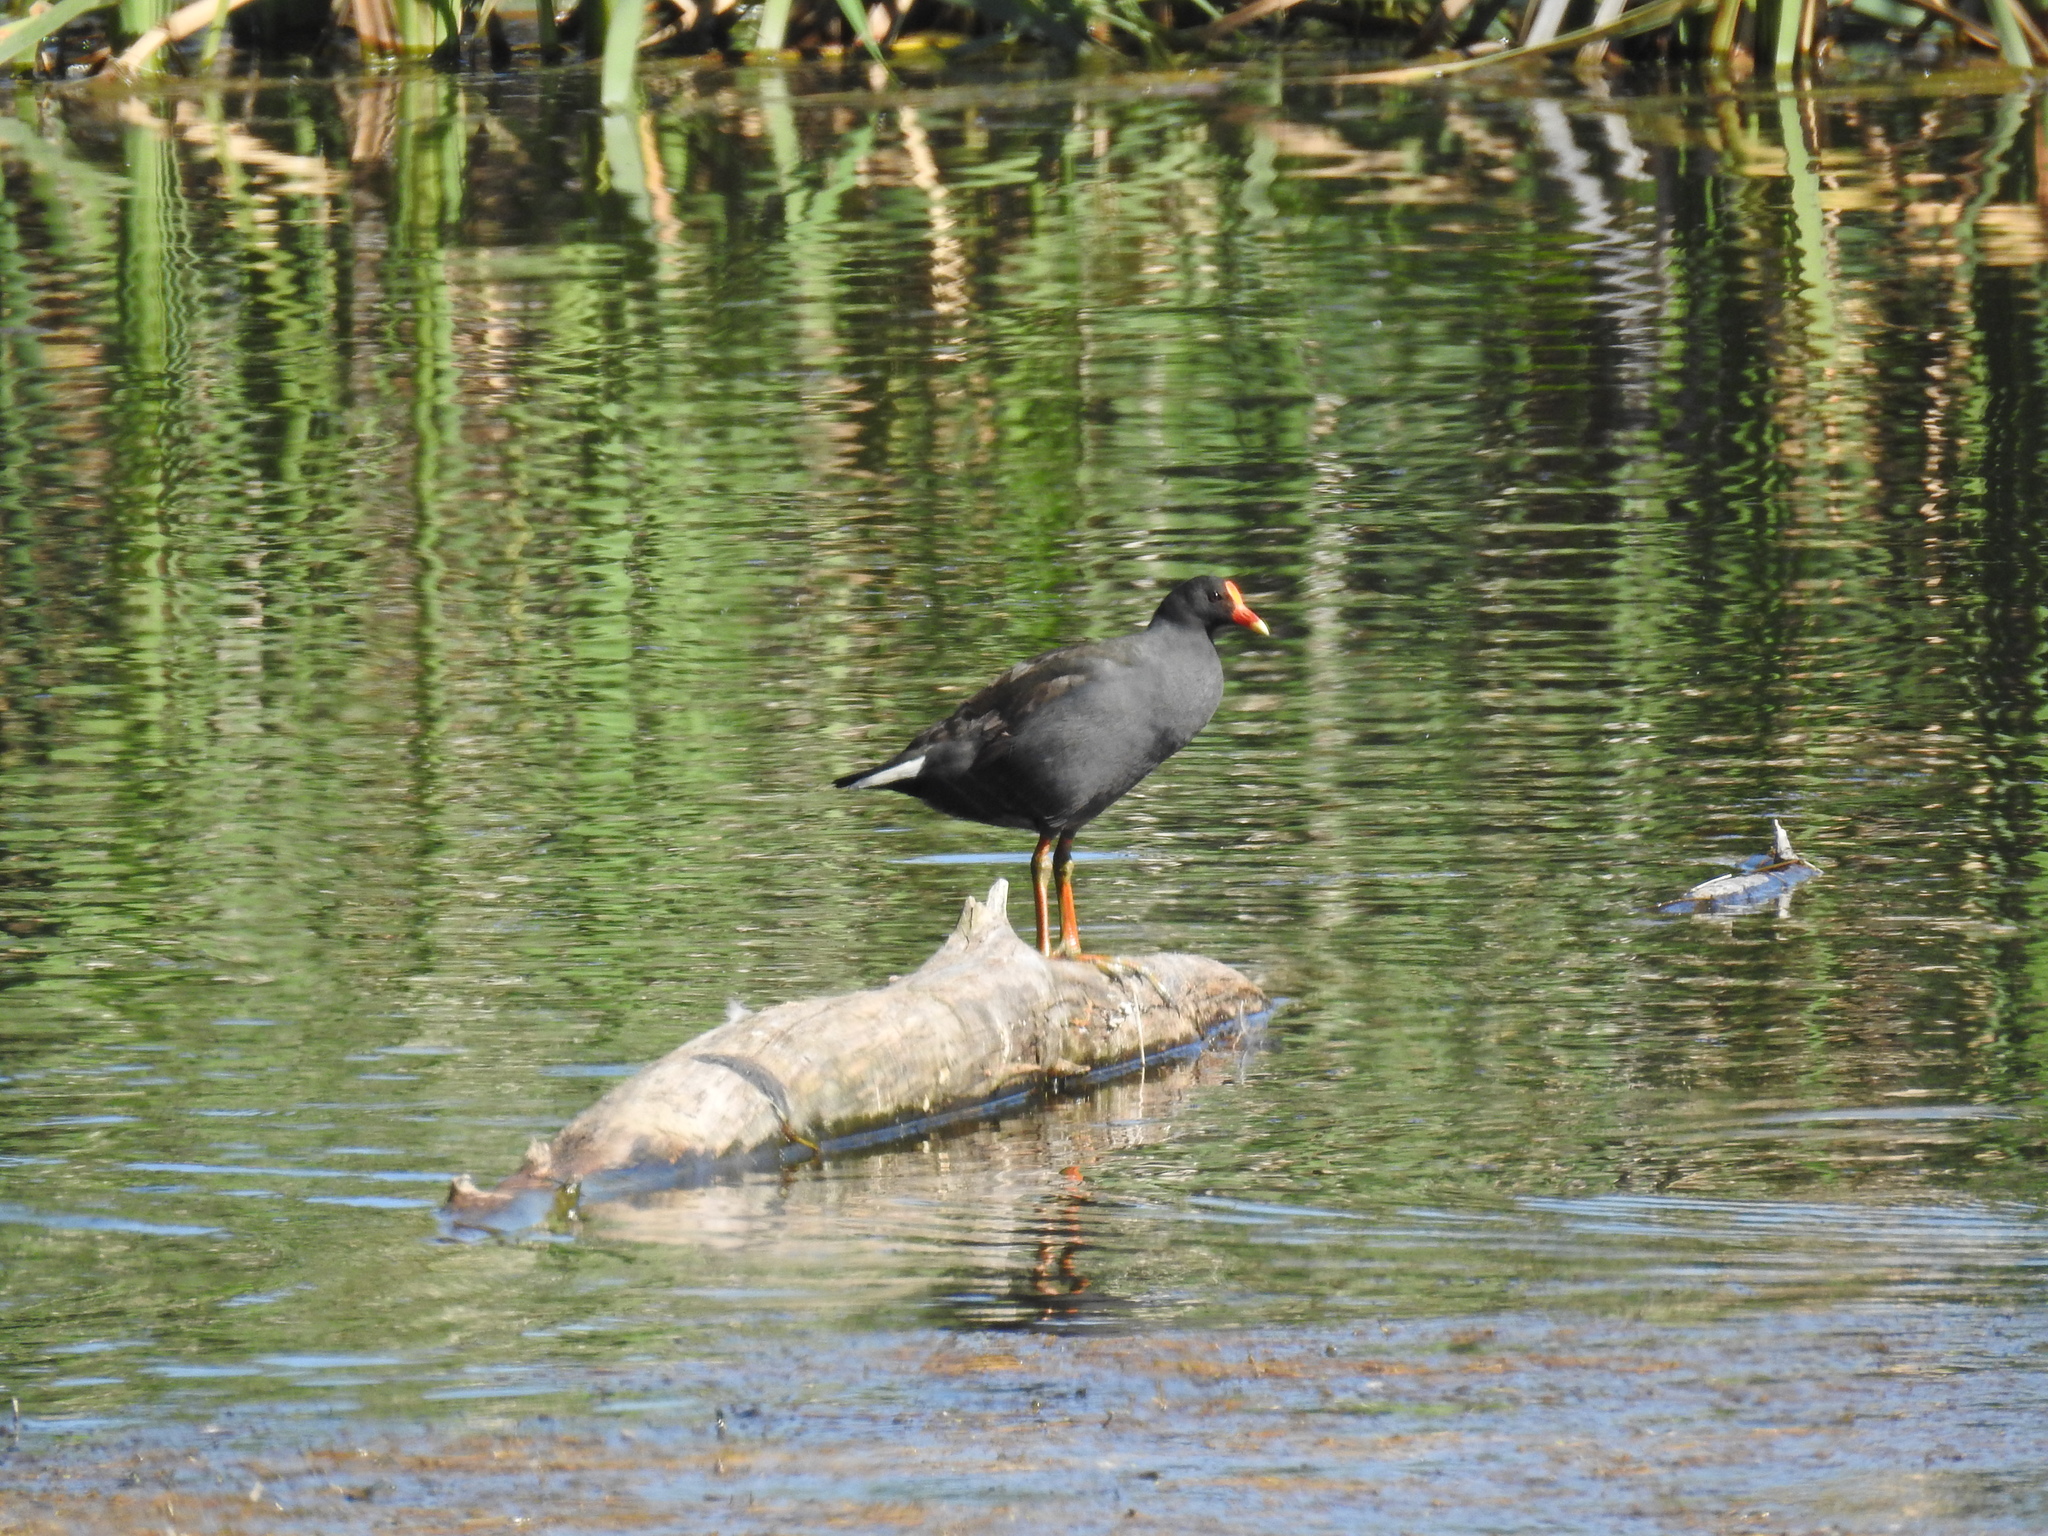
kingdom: Animalia
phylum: Chordata
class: Aves
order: Gruiformes
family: Rallidae
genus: Gallinula
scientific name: Gallinula tenebrosa
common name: Dusky moorhen
